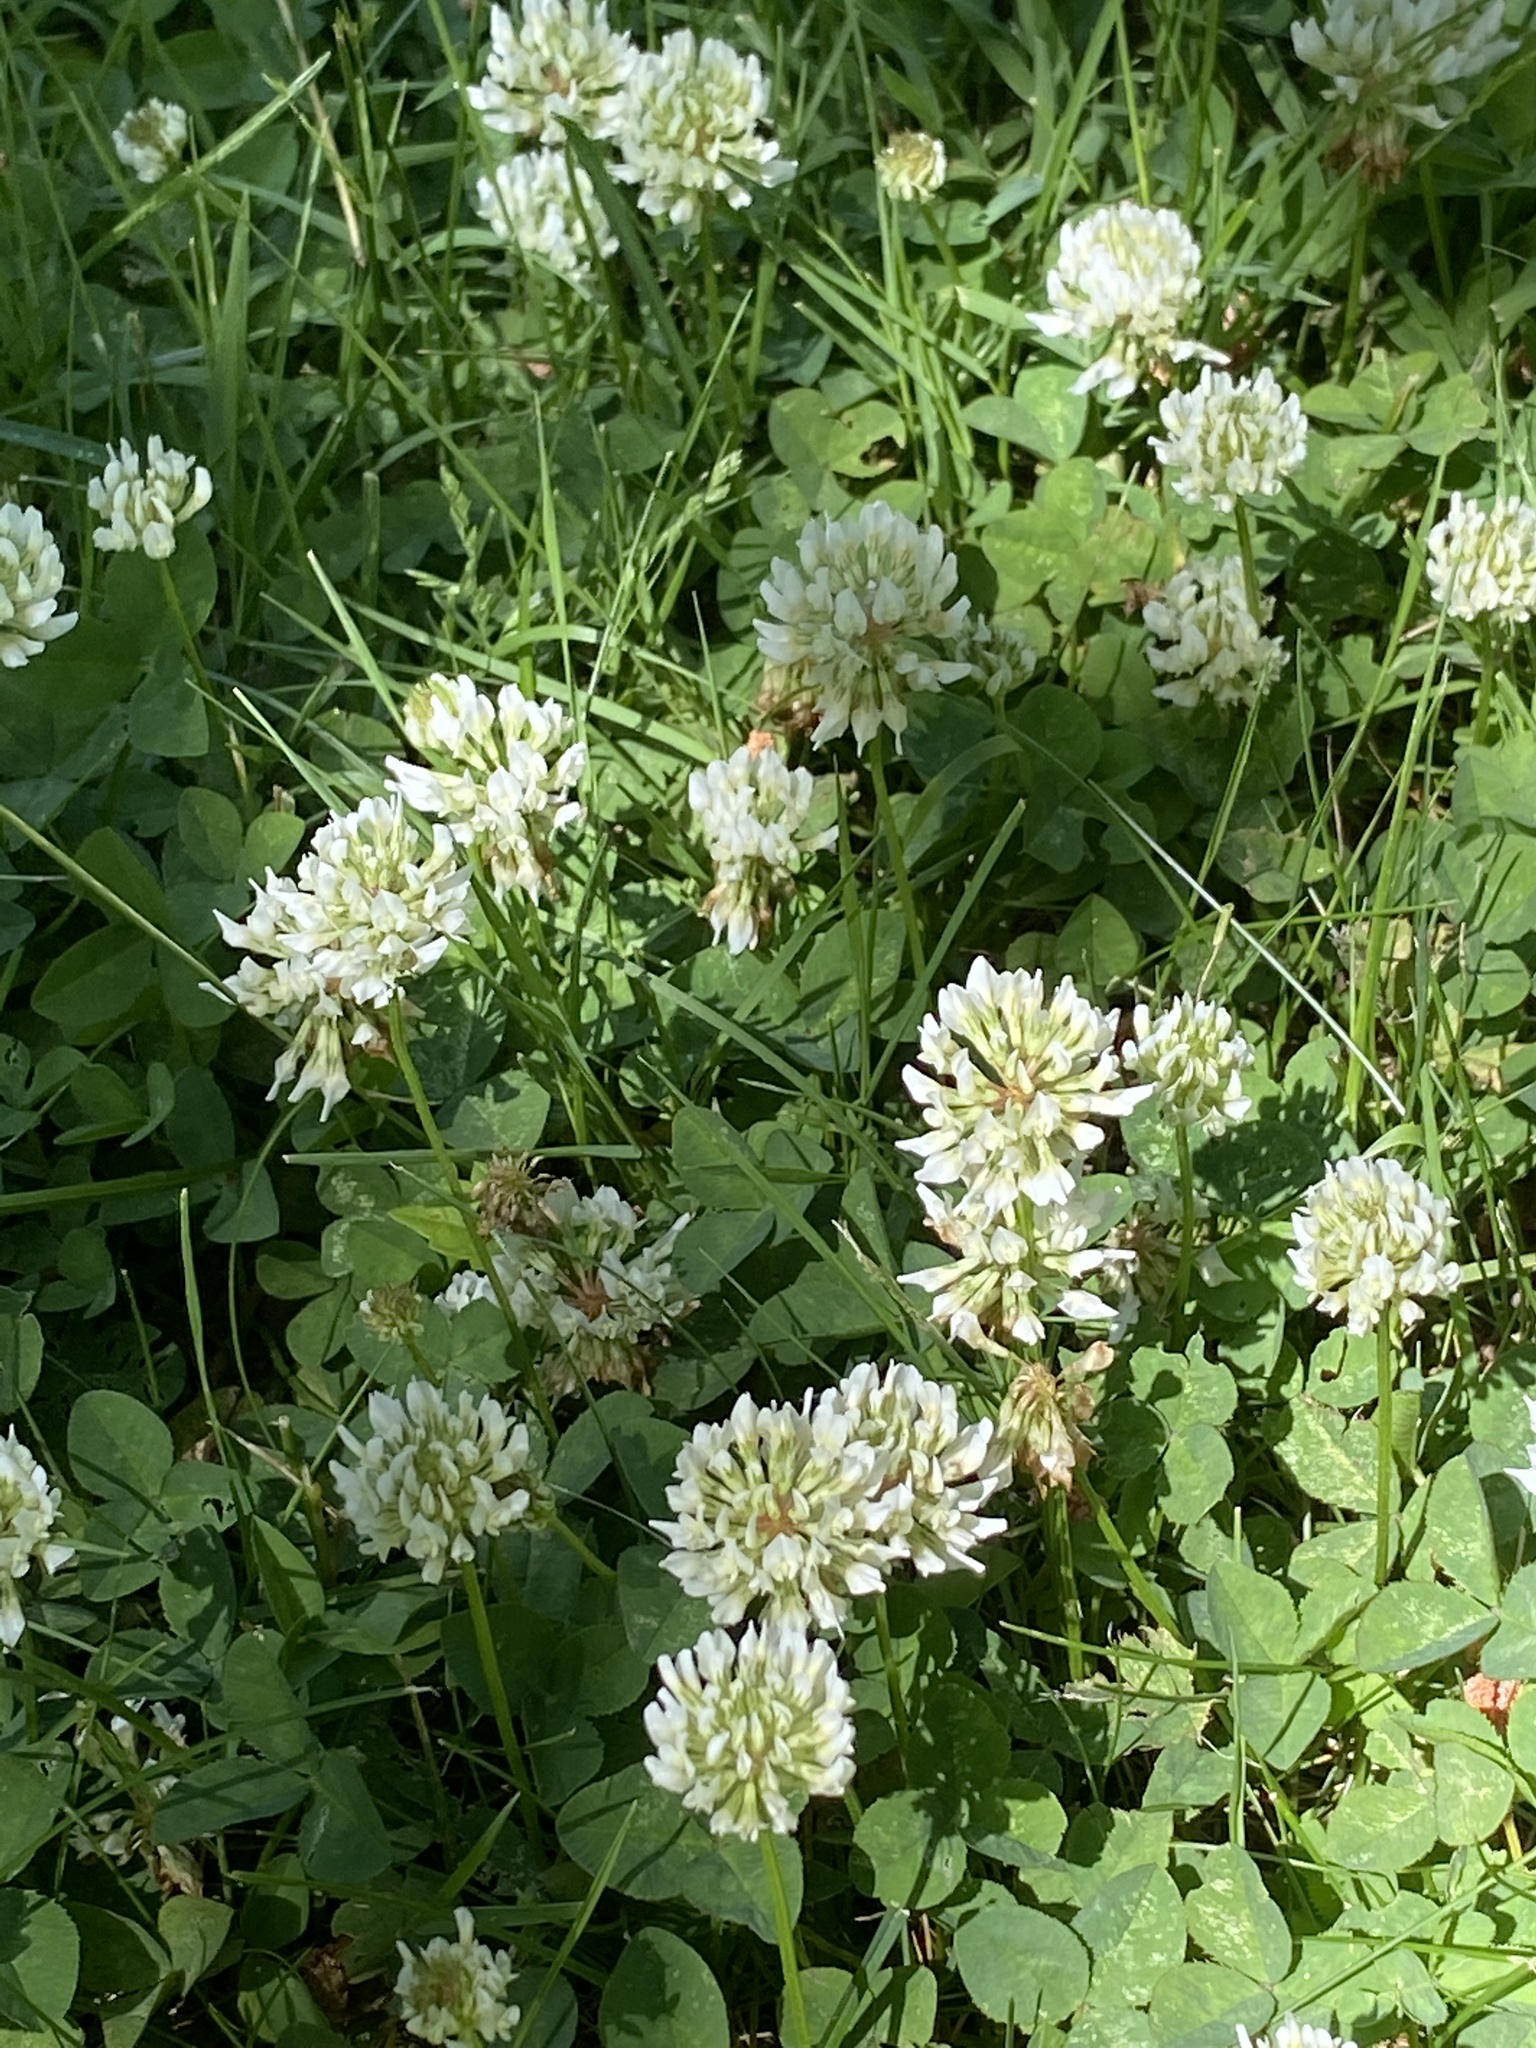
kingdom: Plantae
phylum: Tracheophyta
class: Magnoliopsida
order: Fabales
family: Fabaceae
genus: Trifolium
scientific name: Trifolium repens
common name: White clover
